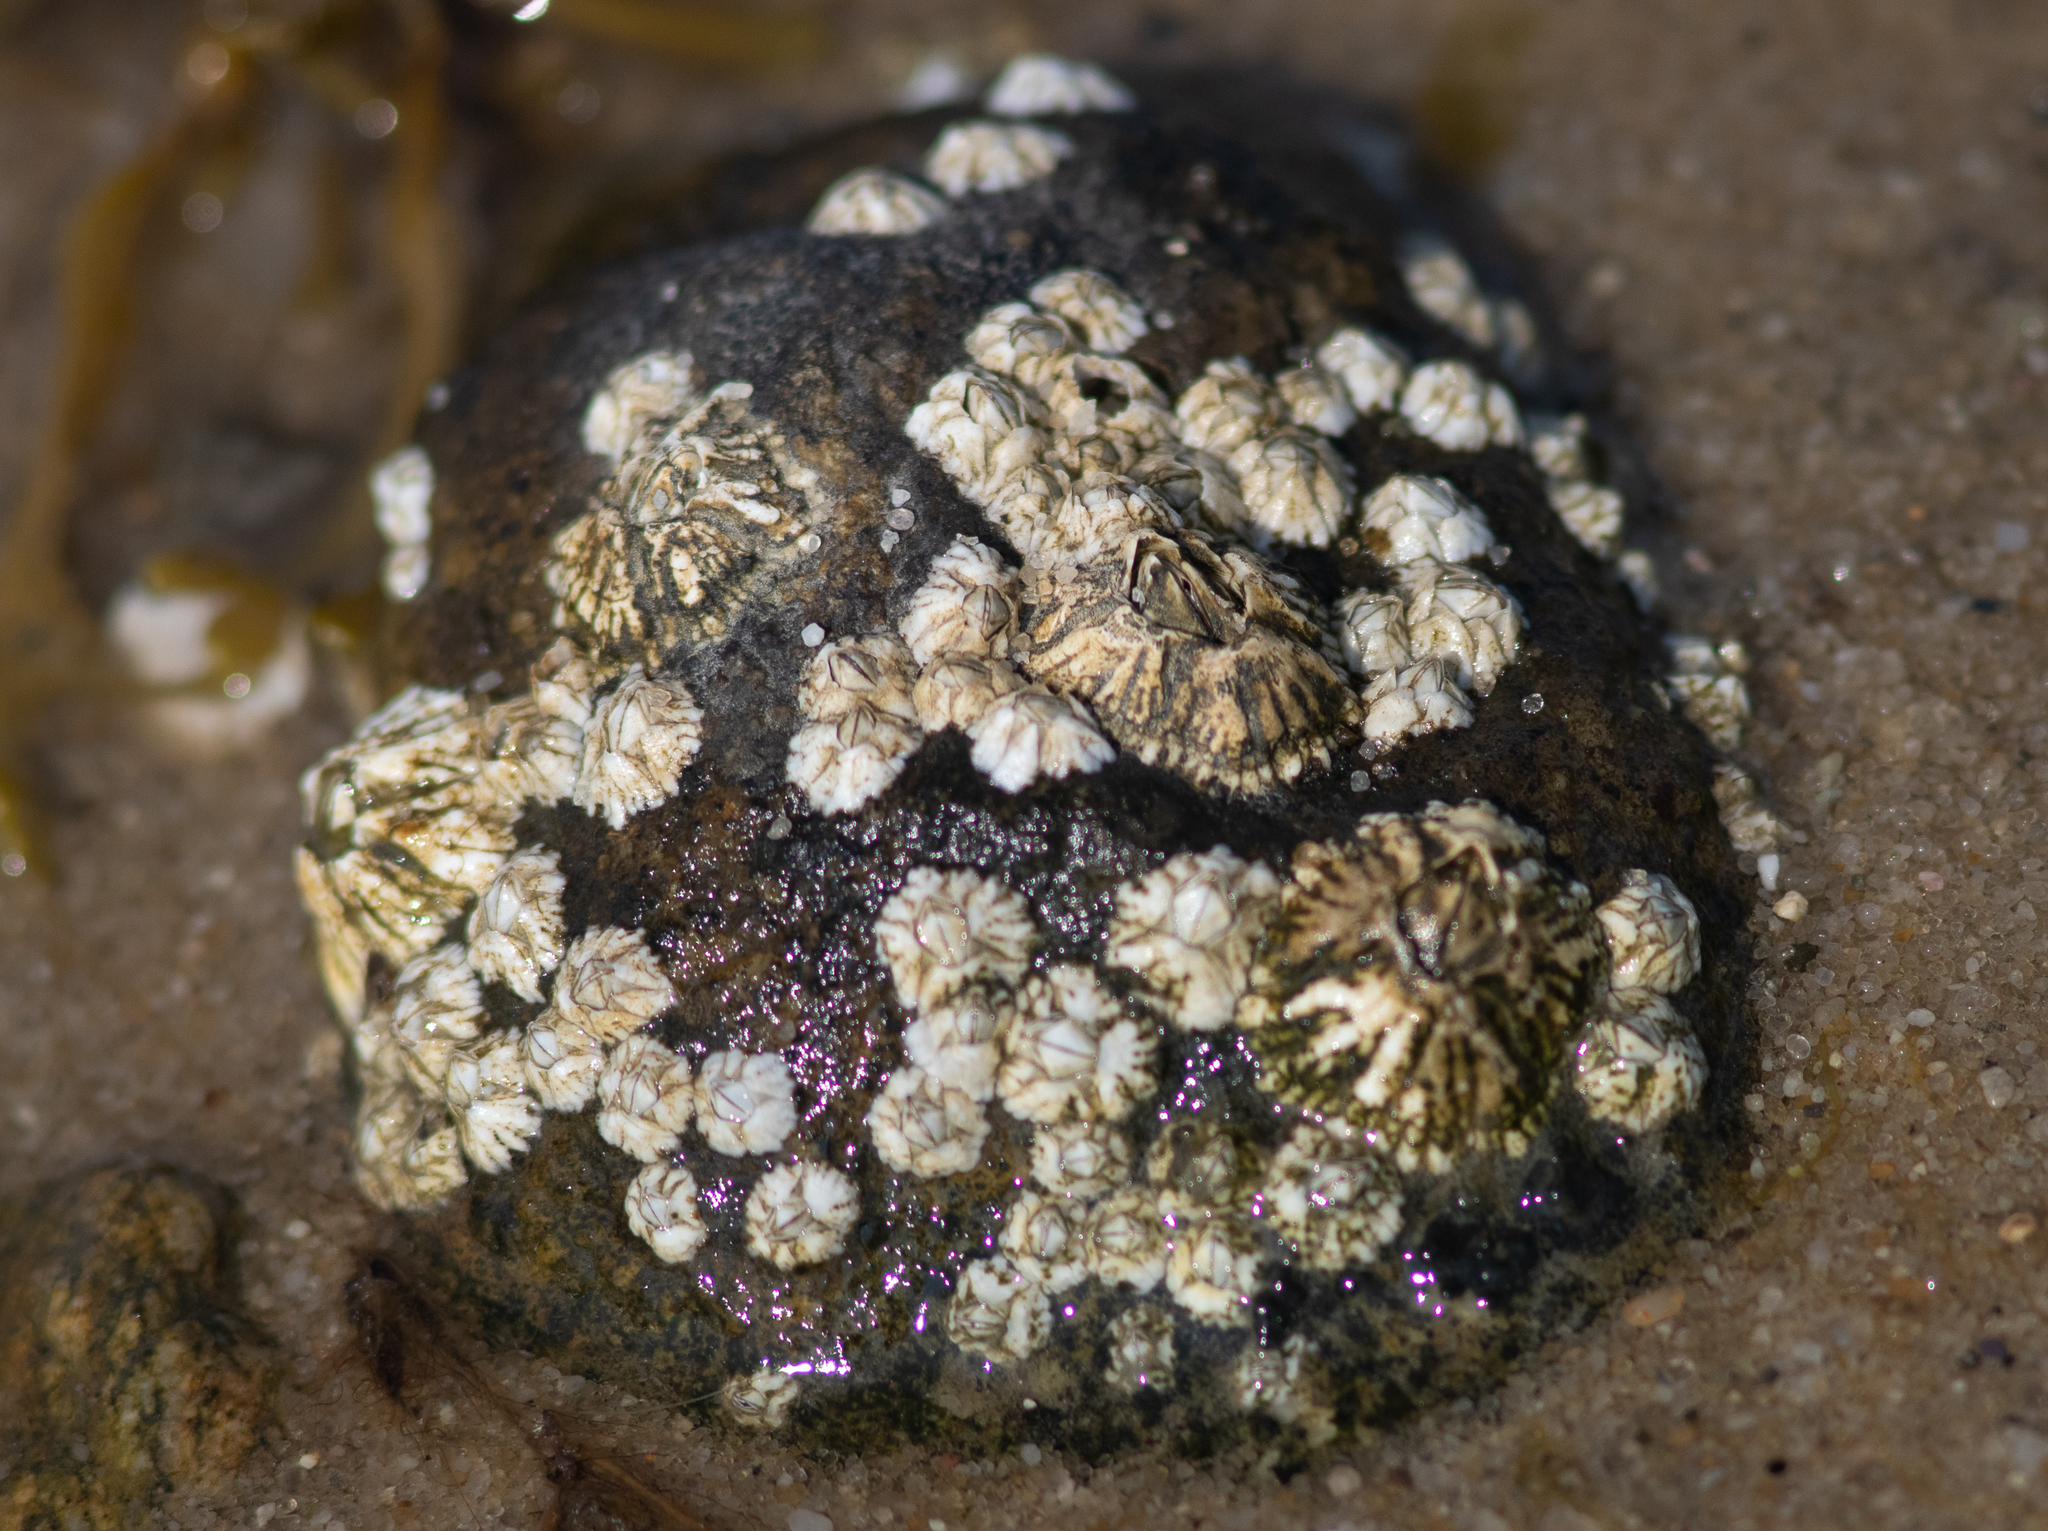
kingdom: Animalia
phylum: Arthropoda
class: Maxillopoda
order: Sessilia
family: Archaeobalanidae
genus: Semibalanus
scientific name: Semibalanus balanoides
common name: Acorn barnacle
